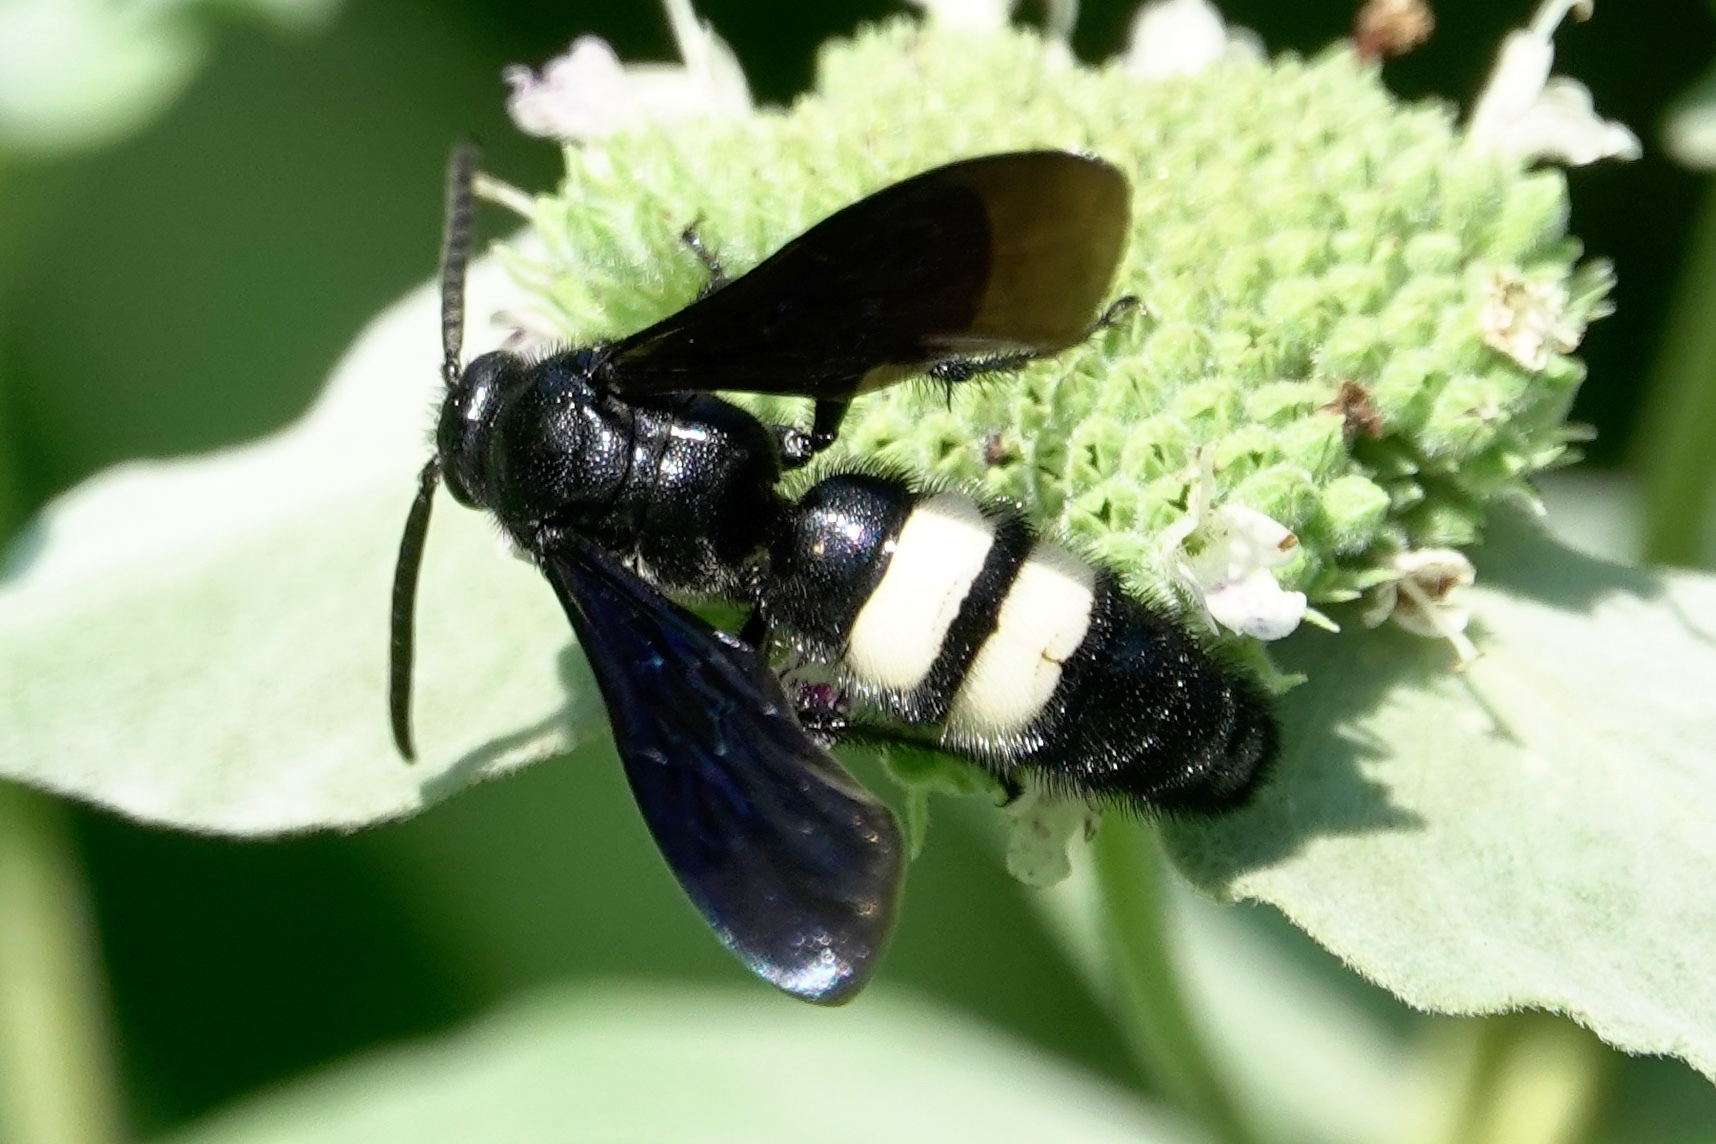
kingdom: Animalia
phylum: Arthropoda
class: Insecta
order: Hymenoptera
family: Scoliidae
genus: Scolia
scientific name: Scolia bicincta
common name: Double-banded scoliid wasp
